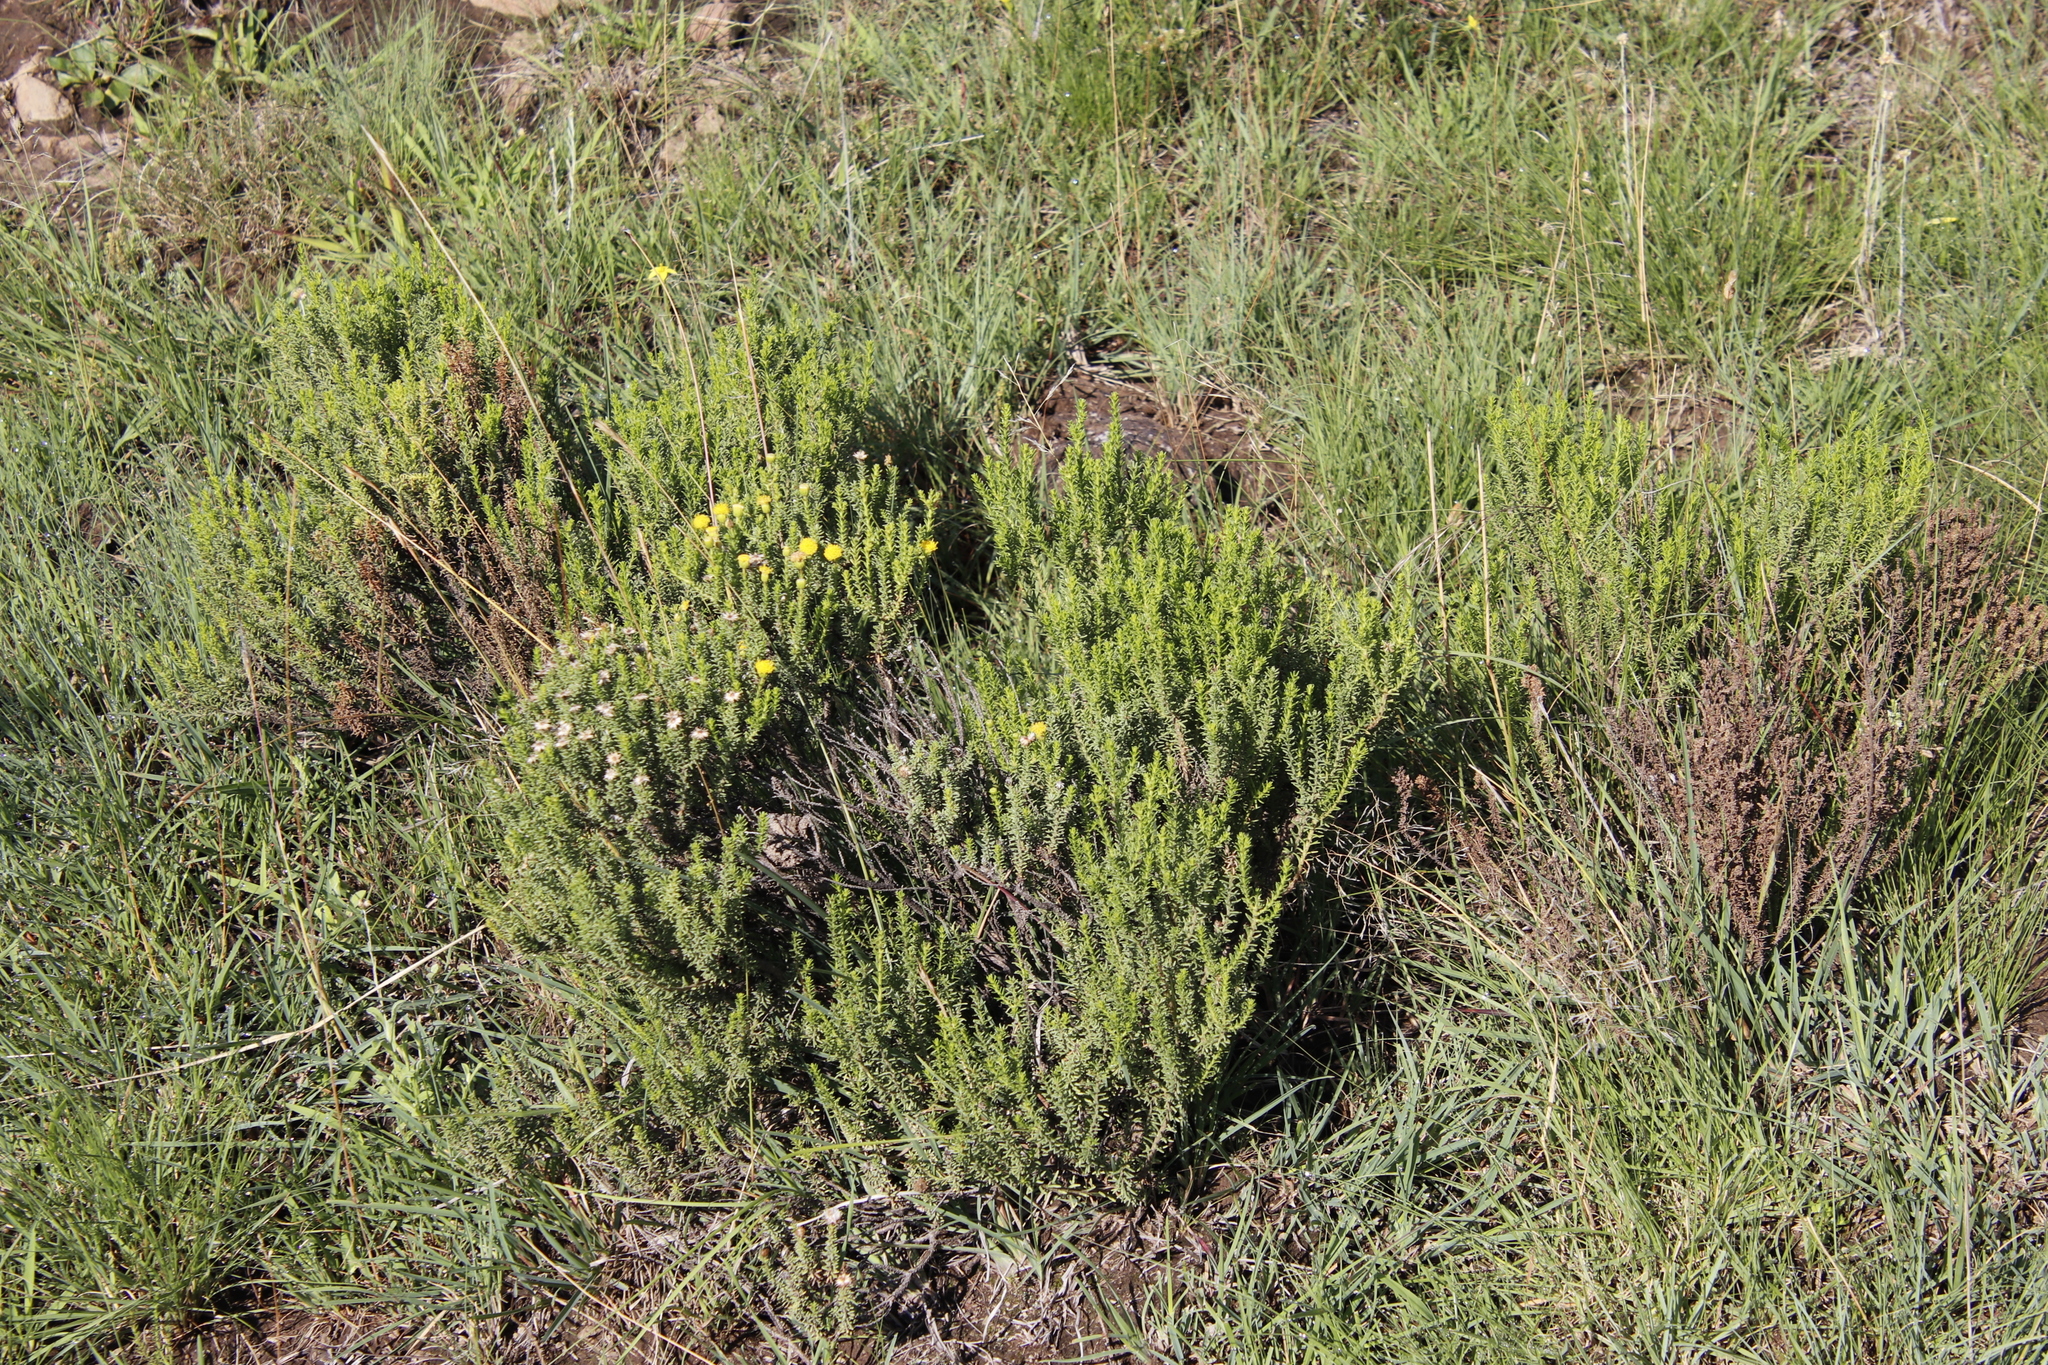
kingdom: Plantae
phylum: Tracheophyta
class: Magnoliopsida
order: Asterales
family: Asteraceae
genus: Chrysocoma
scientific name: Chrysocoma ciliata
